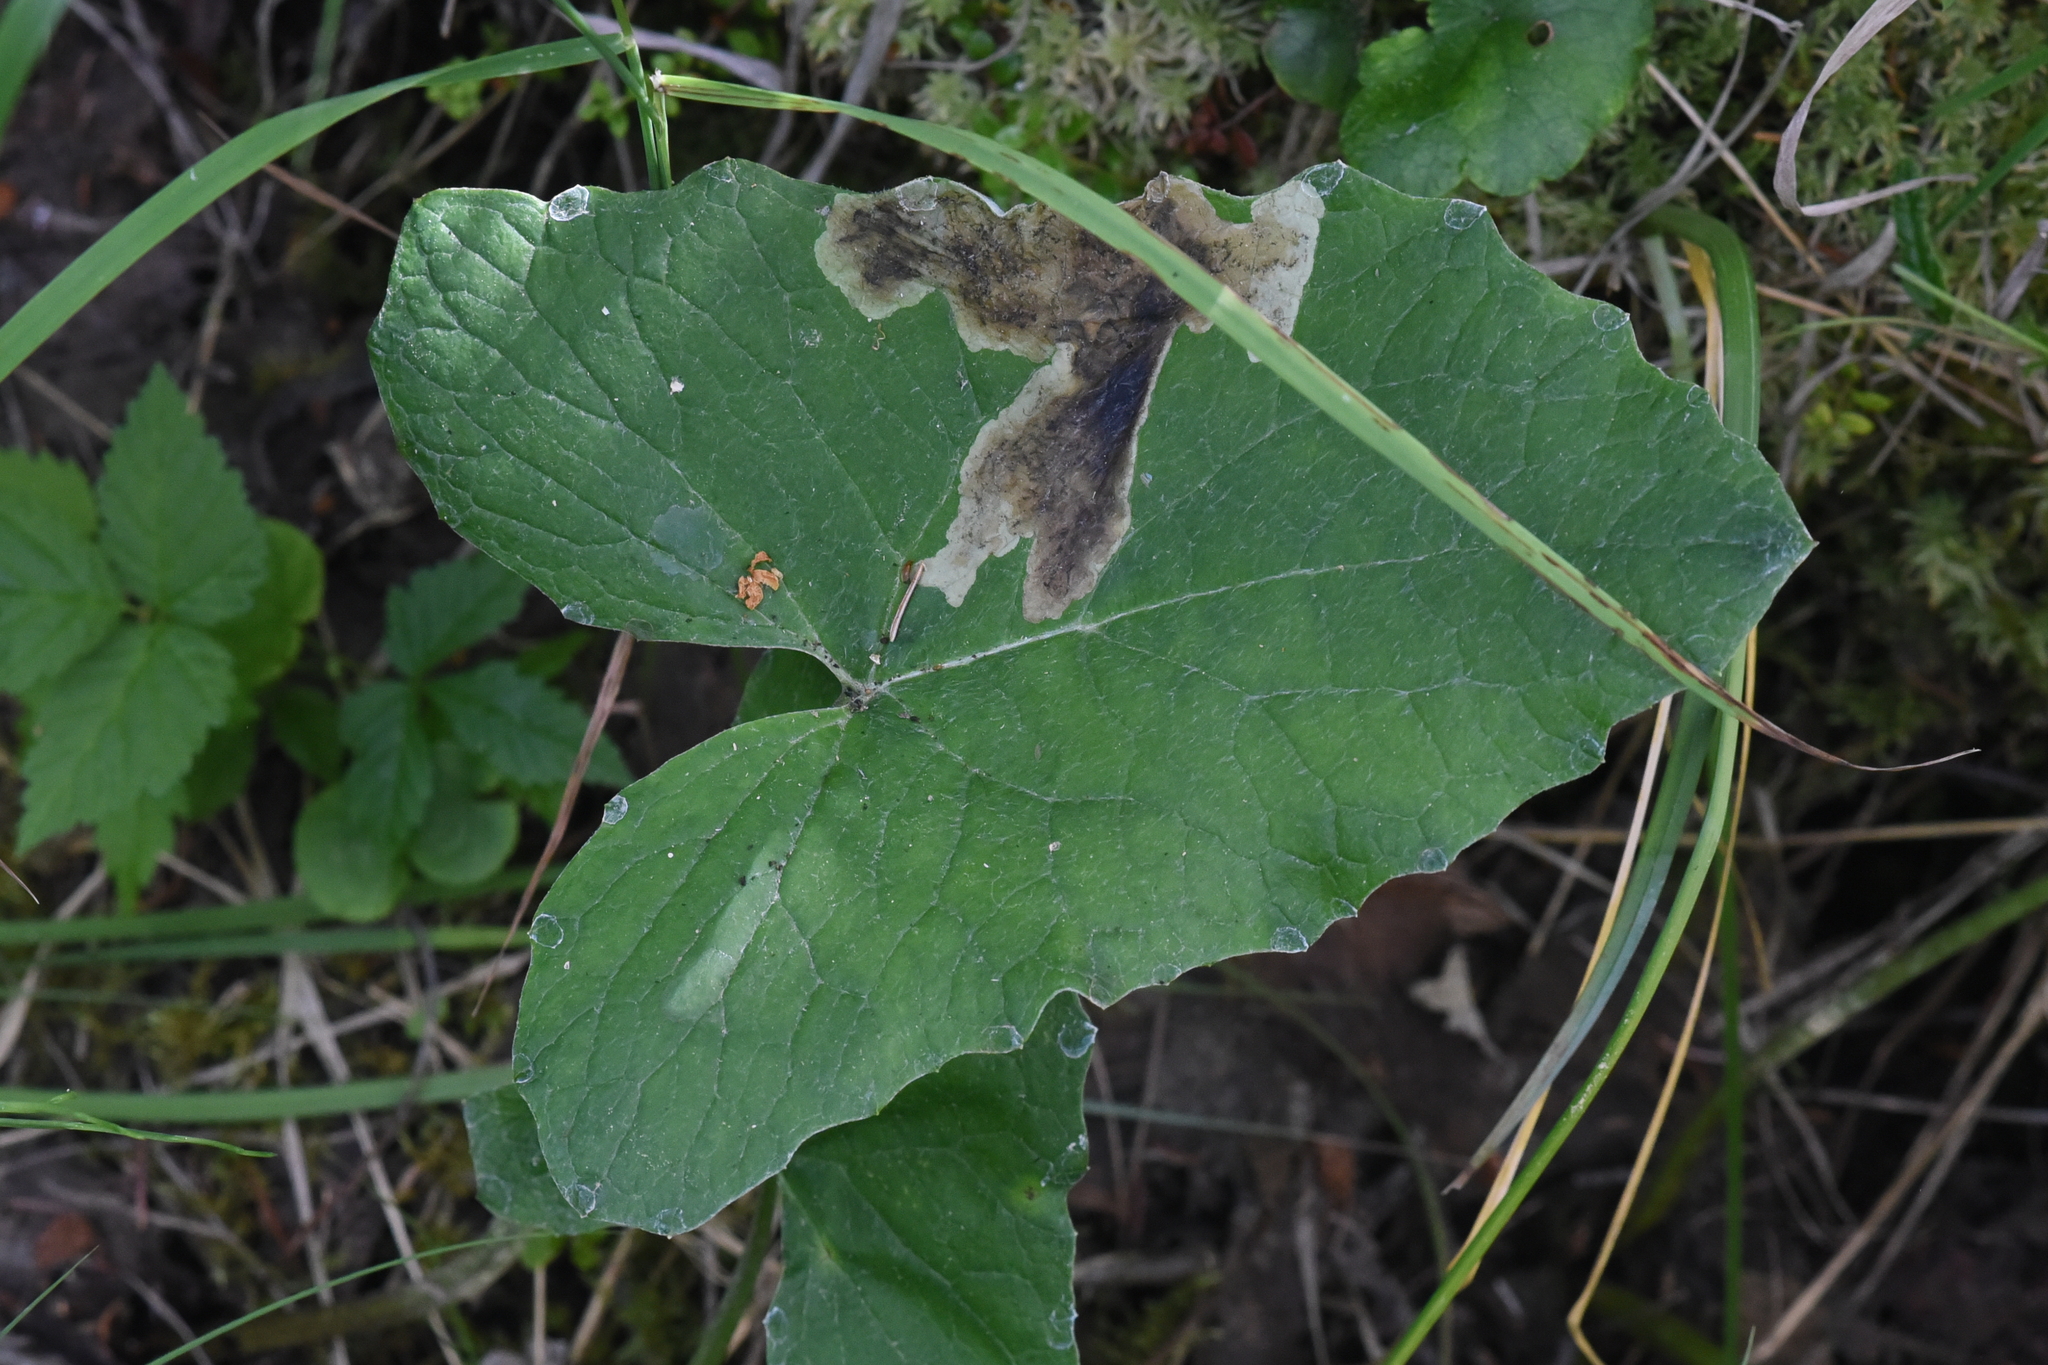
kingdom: Plantae
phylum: Tracheophyta
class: Magnoliopsida
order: Asterales
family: Asteraceae
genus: Petasites
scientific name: Petasites frigidus
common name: Arctic butterbur
